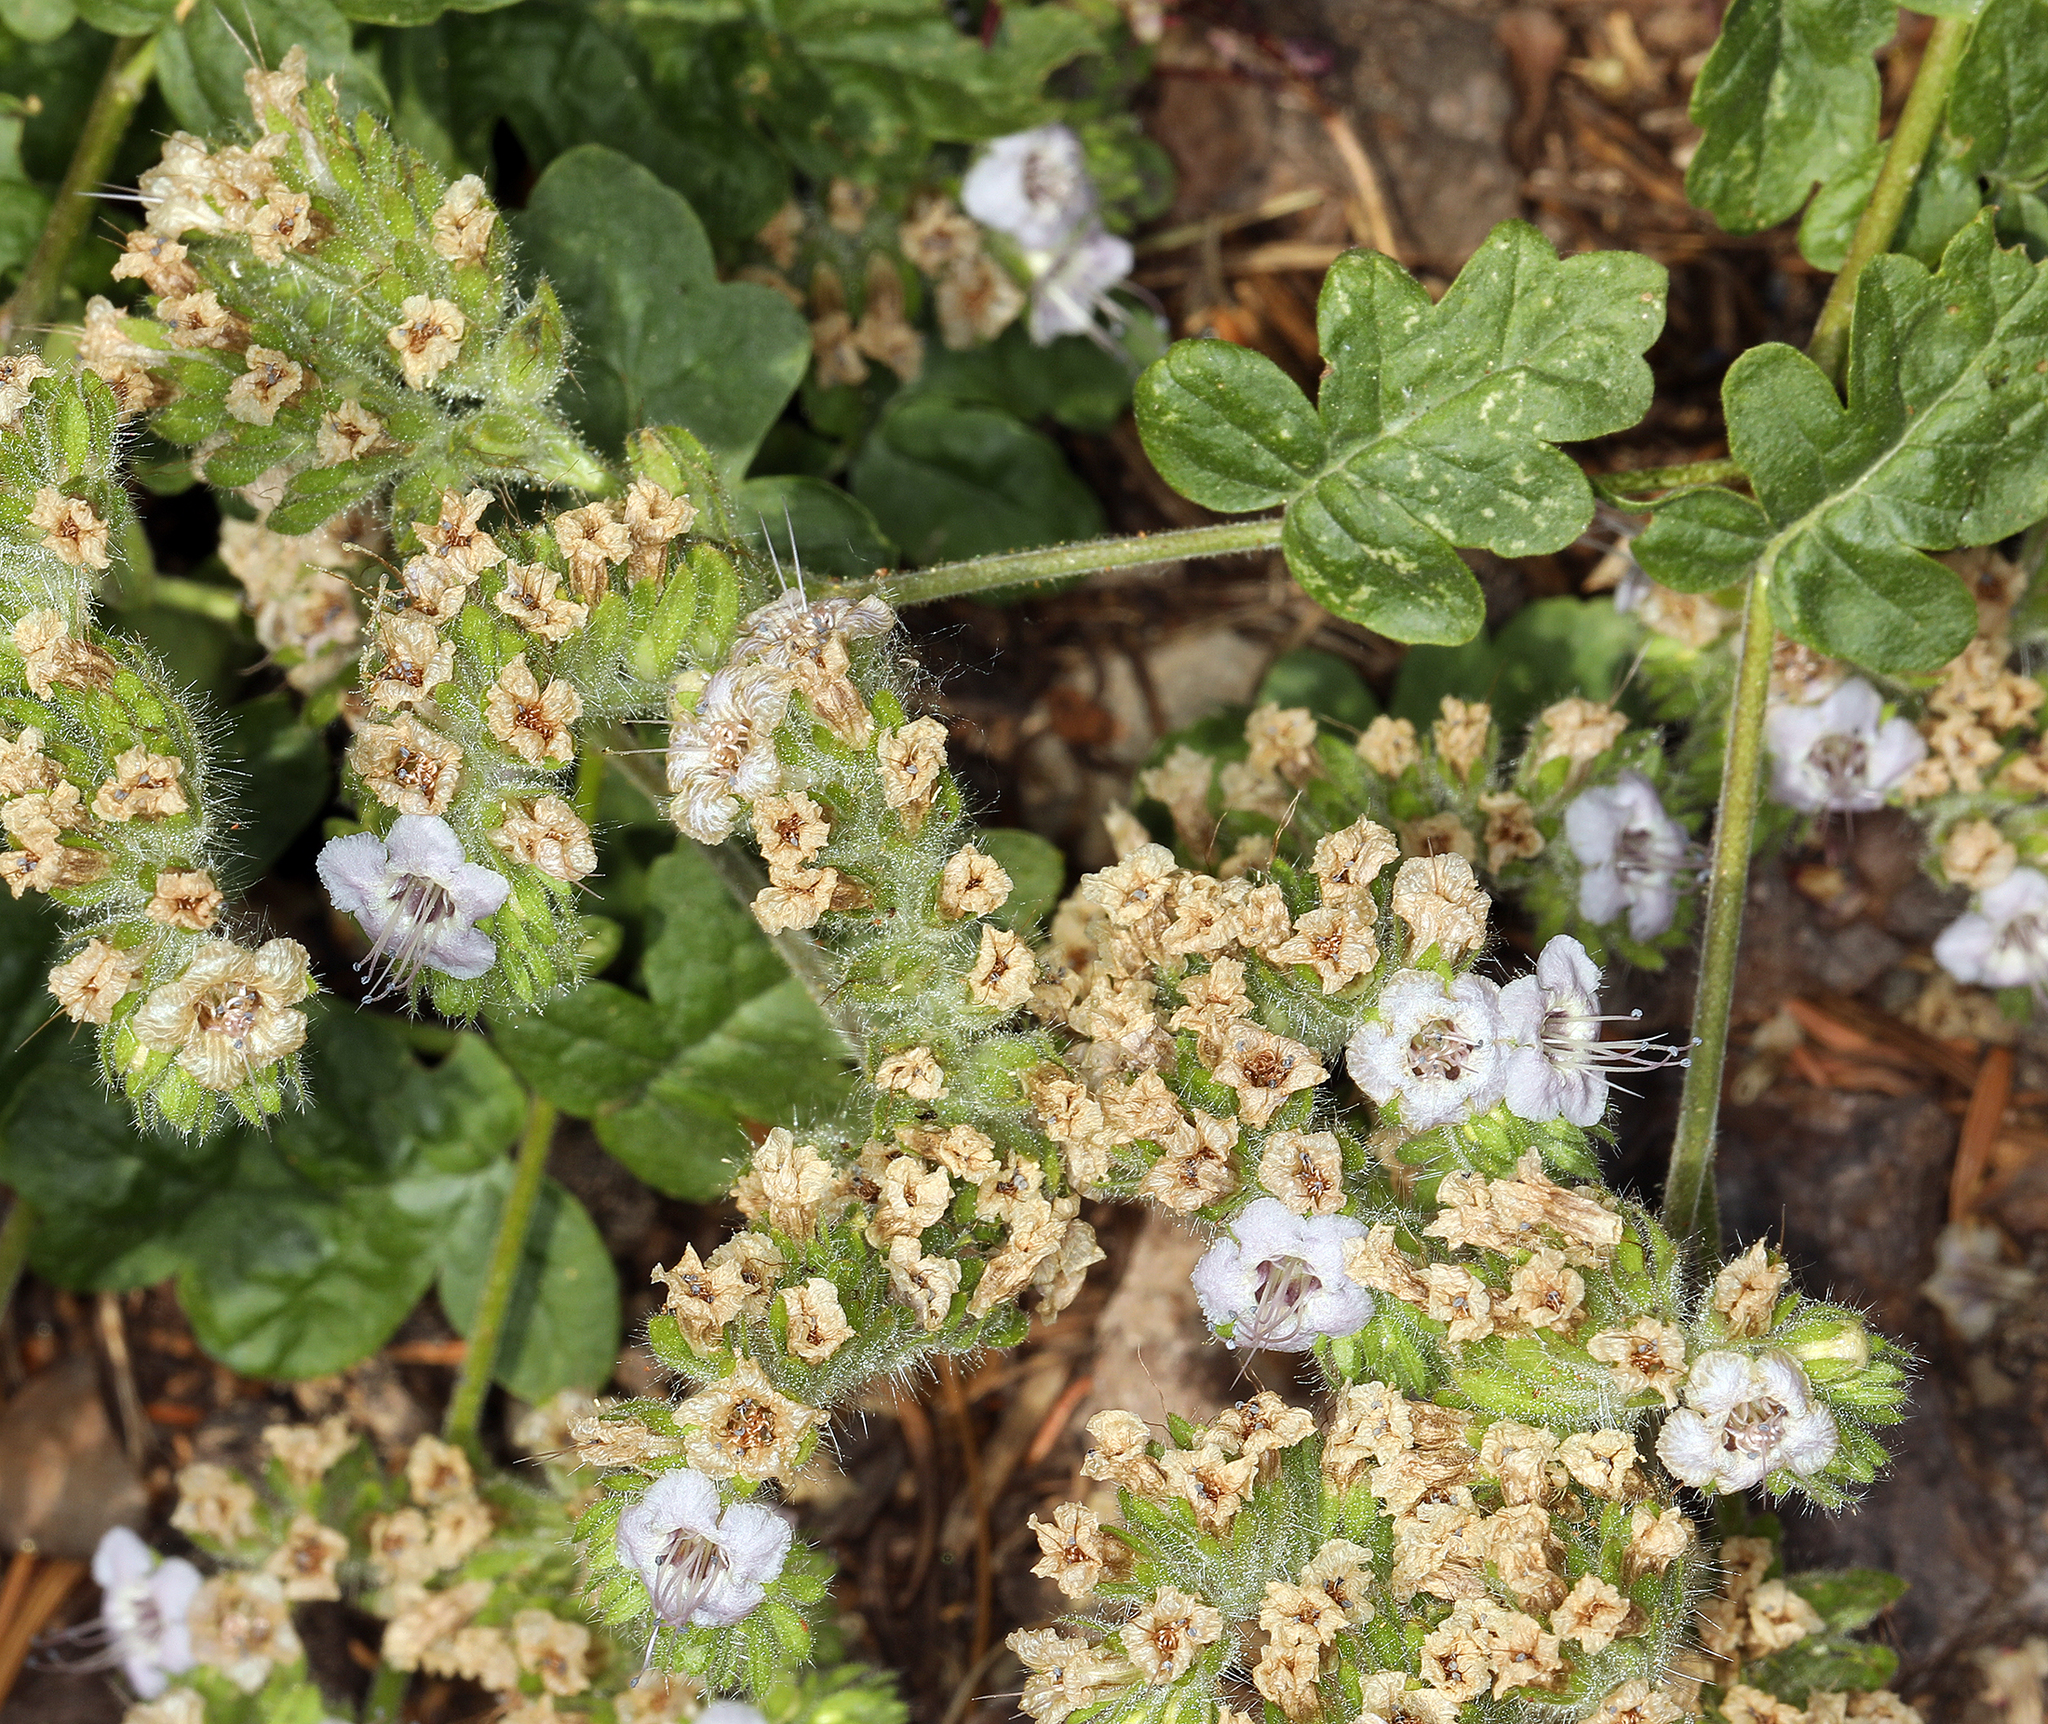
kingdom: Plantae
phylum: Tracheophyta
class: Magnoliopsida
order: Boraginales
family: Hydrophyllaceae
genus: Phacelia
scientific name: Phacelia ramosissima
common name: Branching phacelia
